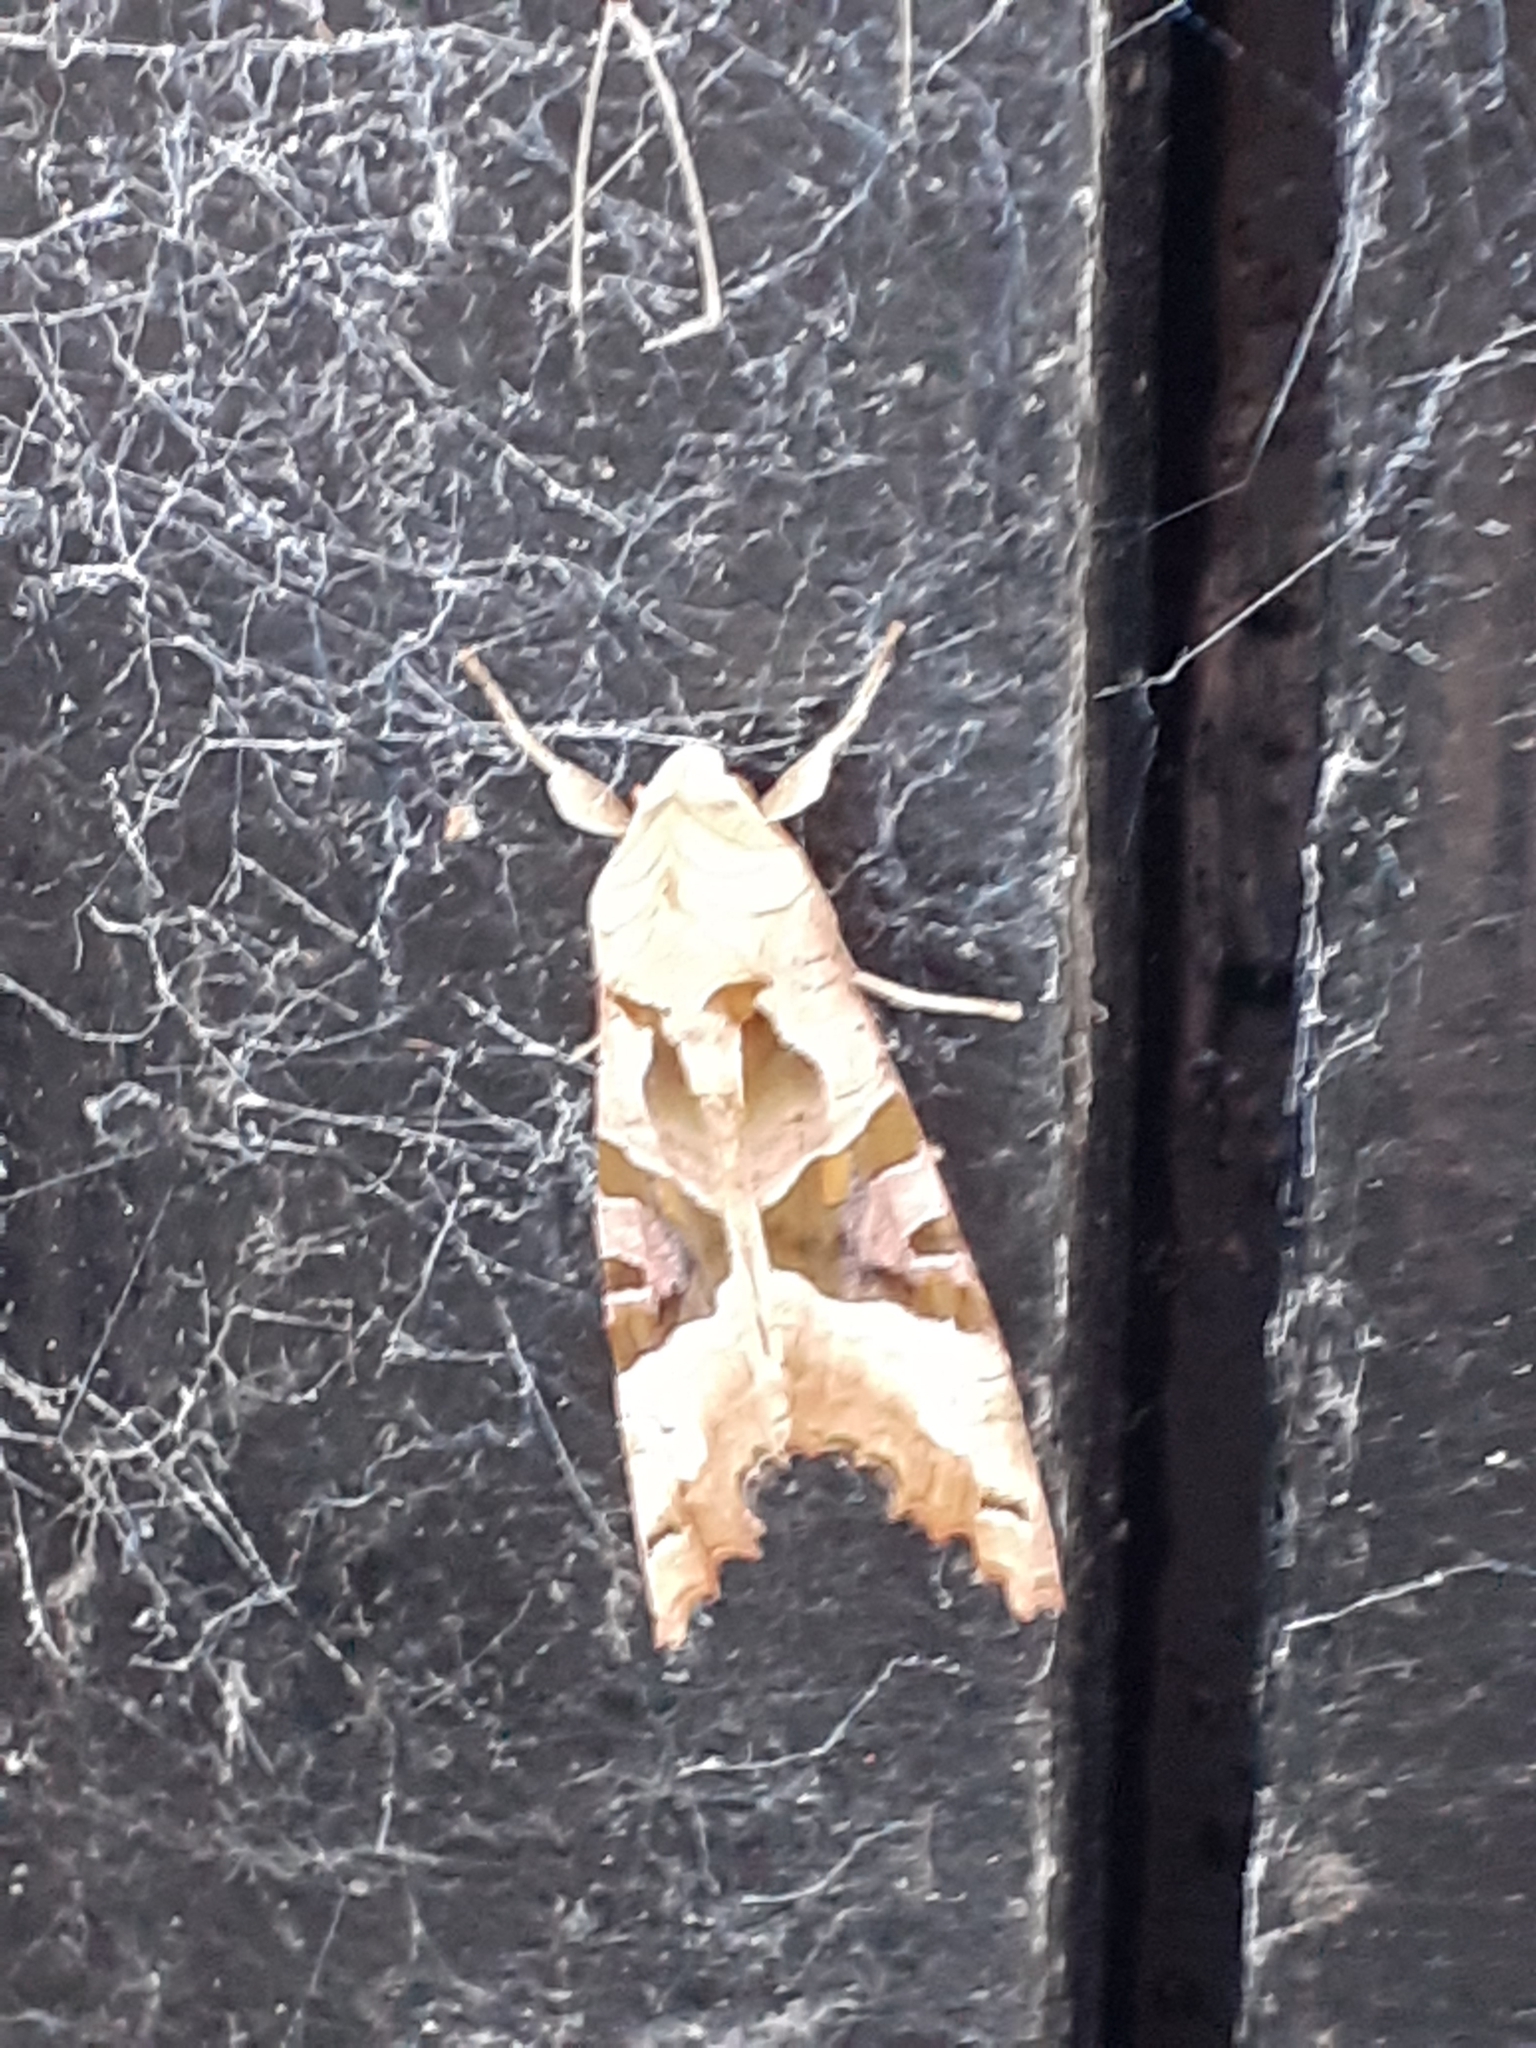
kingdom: Animalia
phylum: Arthropoda
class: Insecta
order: Lepidoptera
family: Noctuidae
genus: Phlogophora
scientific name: Phlogophora meticulosa
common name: Angle shades
